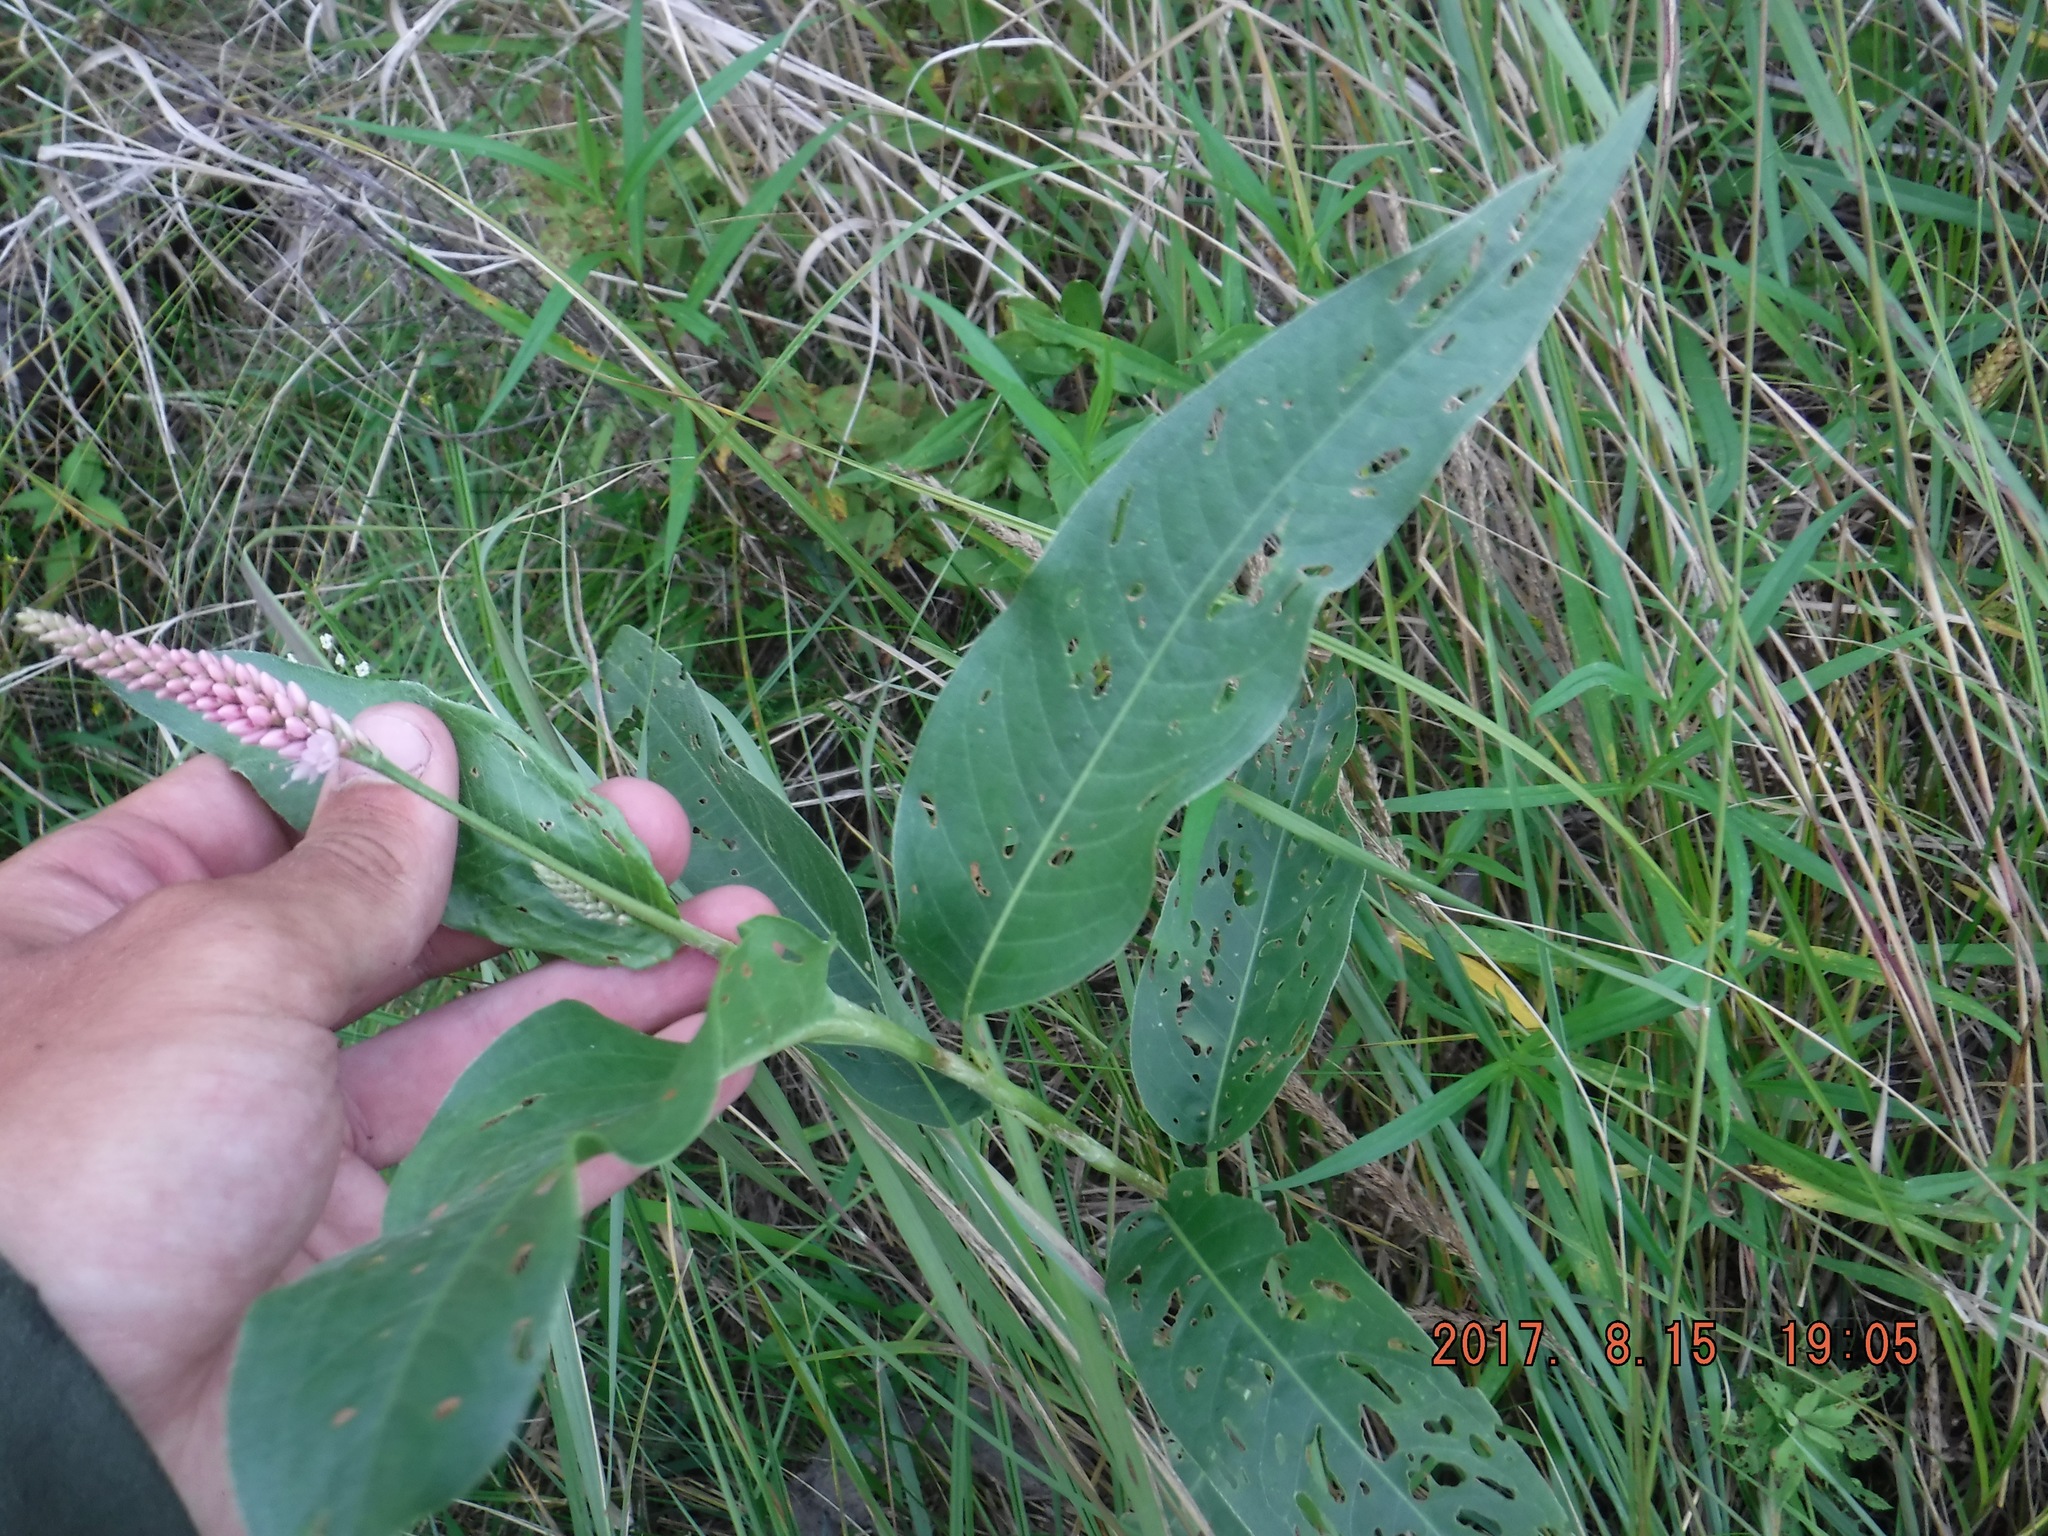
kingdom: Plantae
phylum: Tracheophyta
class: Magnoliopsida
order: Caryophyllales
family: Polygonaceae
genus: Persicaria
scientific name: Persicaria amphibia
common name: Amphibious bistort
